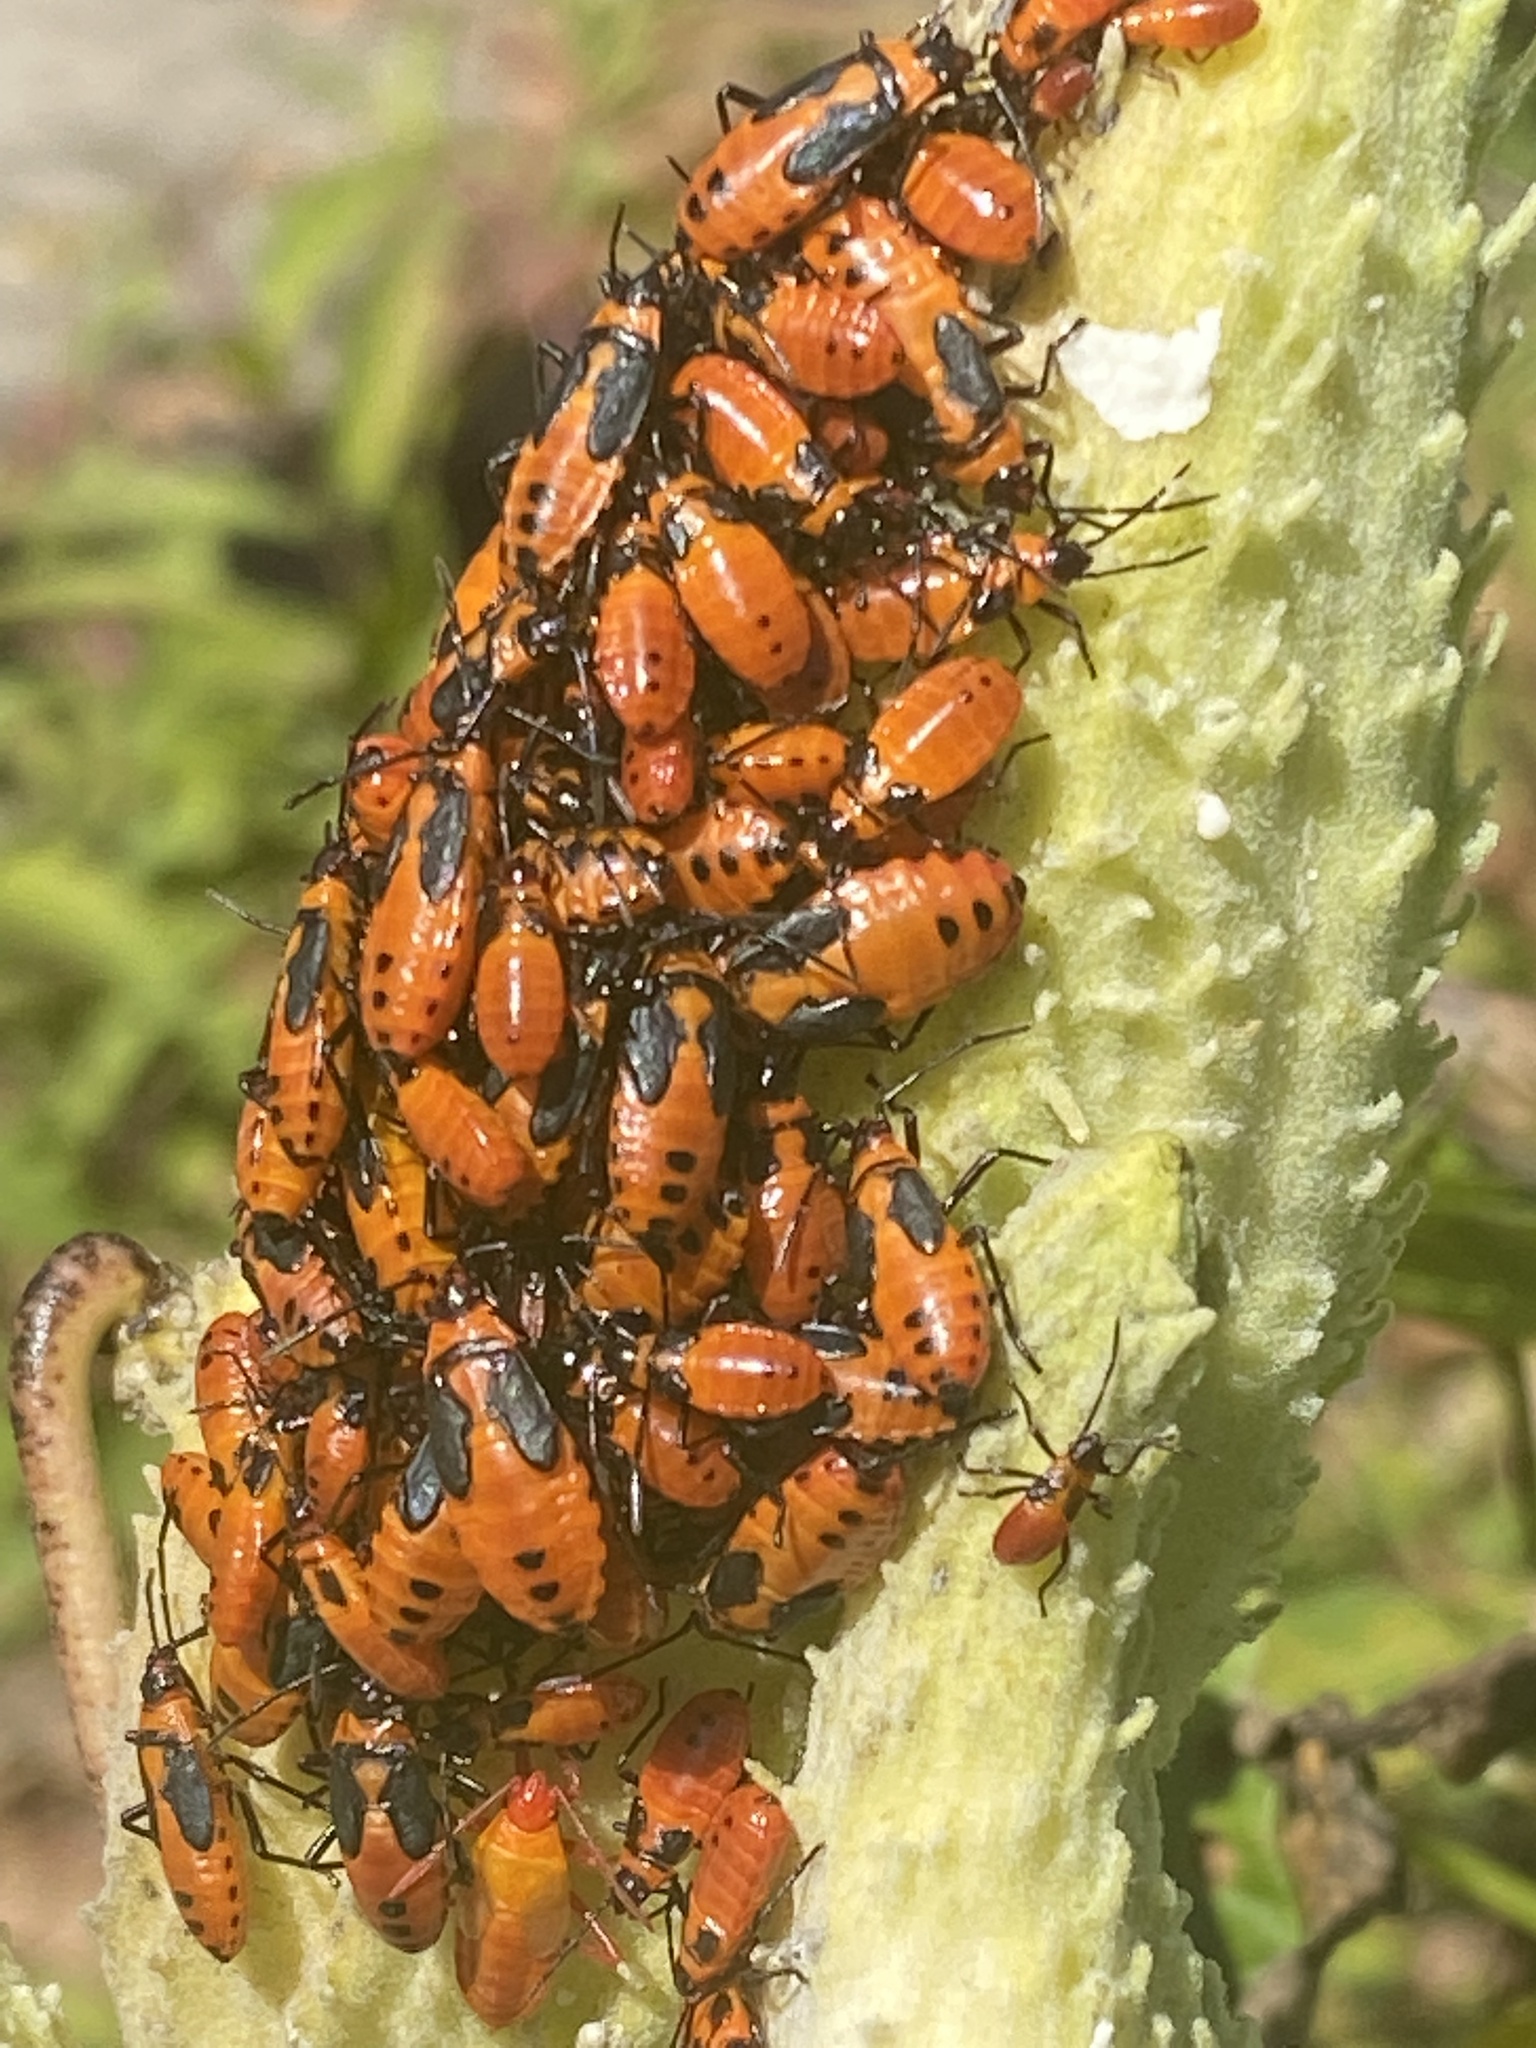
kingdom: Animalia
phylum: Arthropoda
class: Insecta
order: Hemiptera
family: Lygaeidae
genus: Oncopeltus
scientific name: Oncopeltus fasciatus
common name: Large milkweed bug
